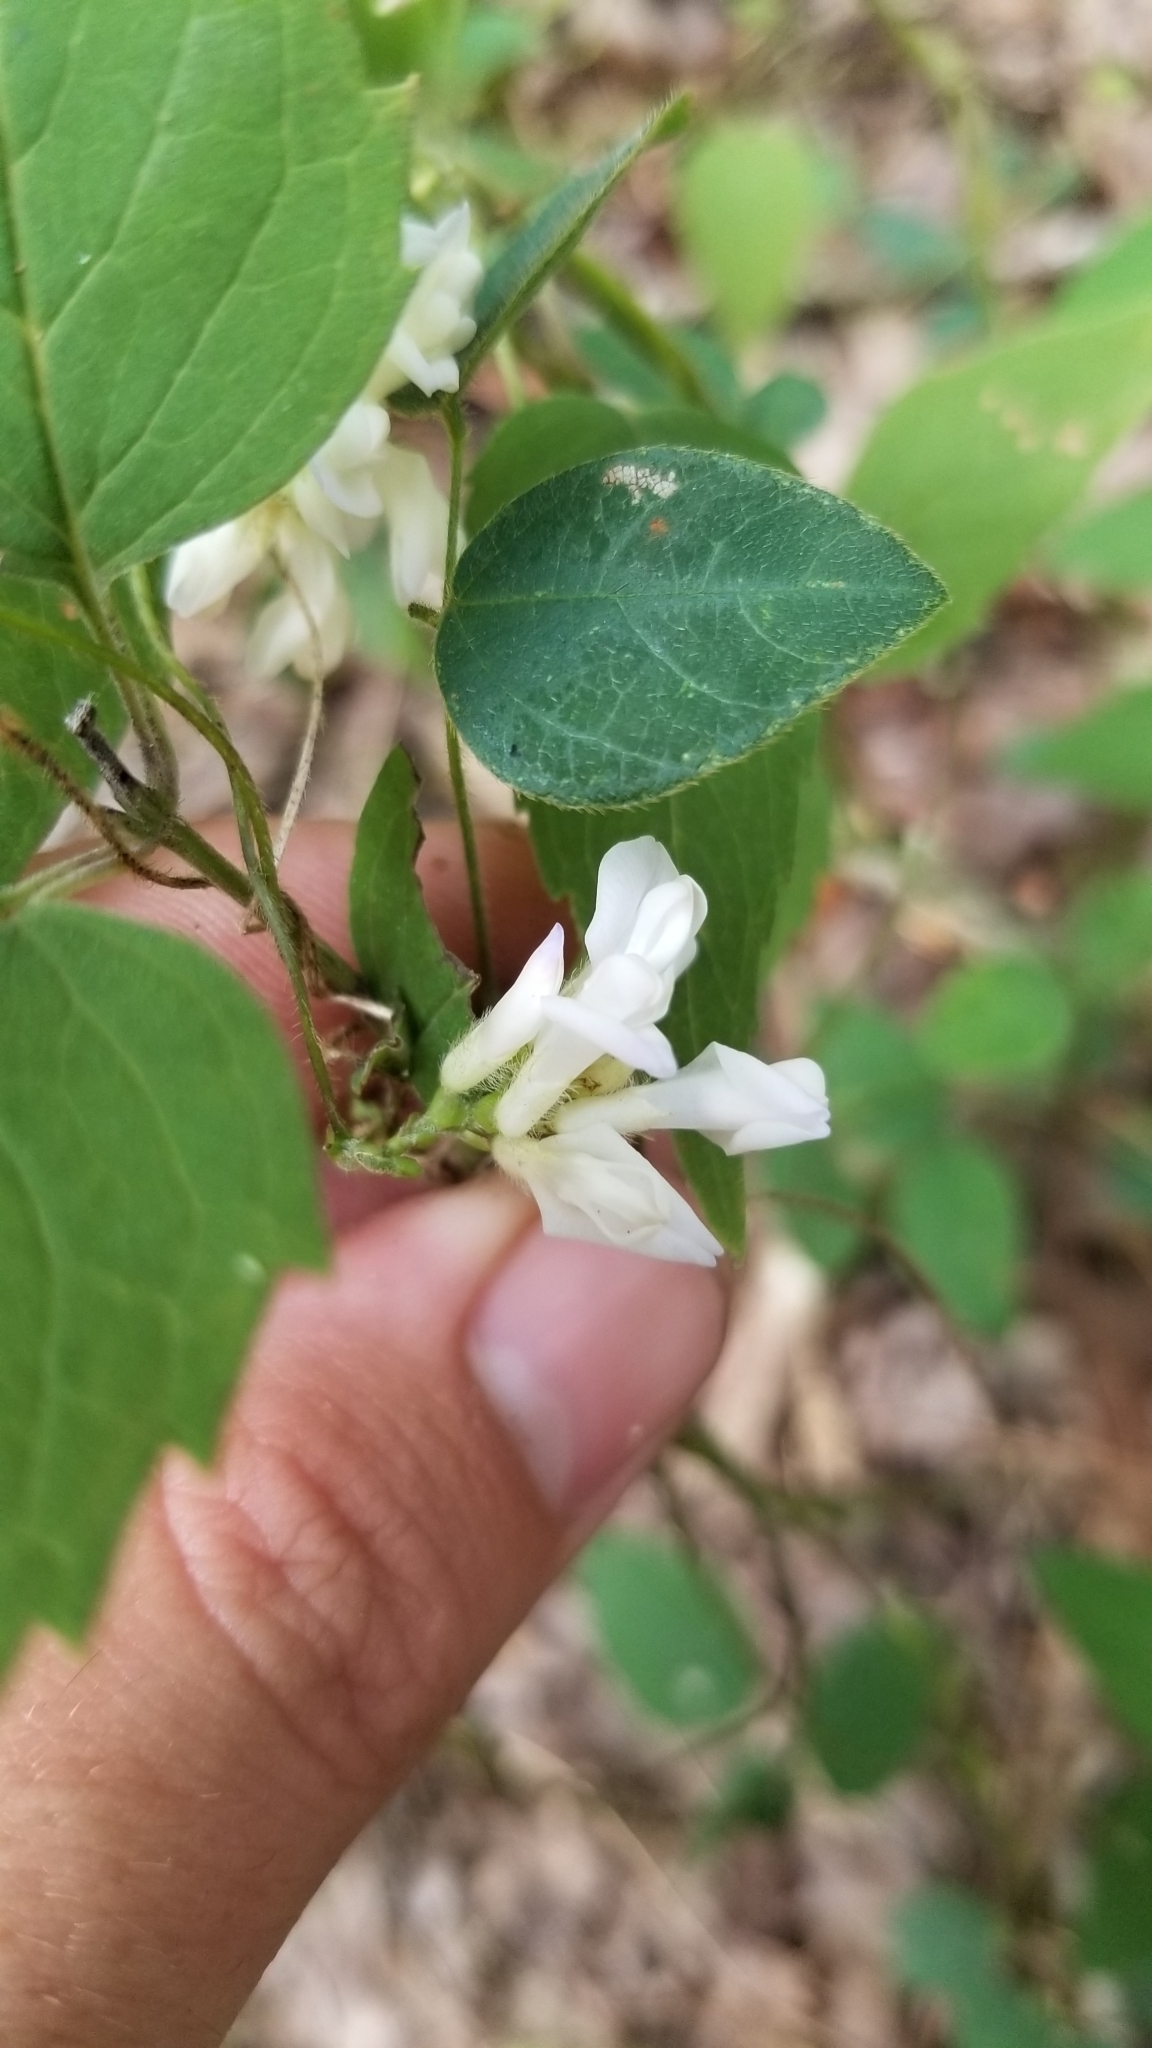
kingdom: Plantae
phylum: Tracheophyta
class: Magnoliopsida
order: Fabales
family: Fabaceae
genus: Amphicarpaea
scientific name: Amphicarpaea bracteata
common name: American hog peanut
